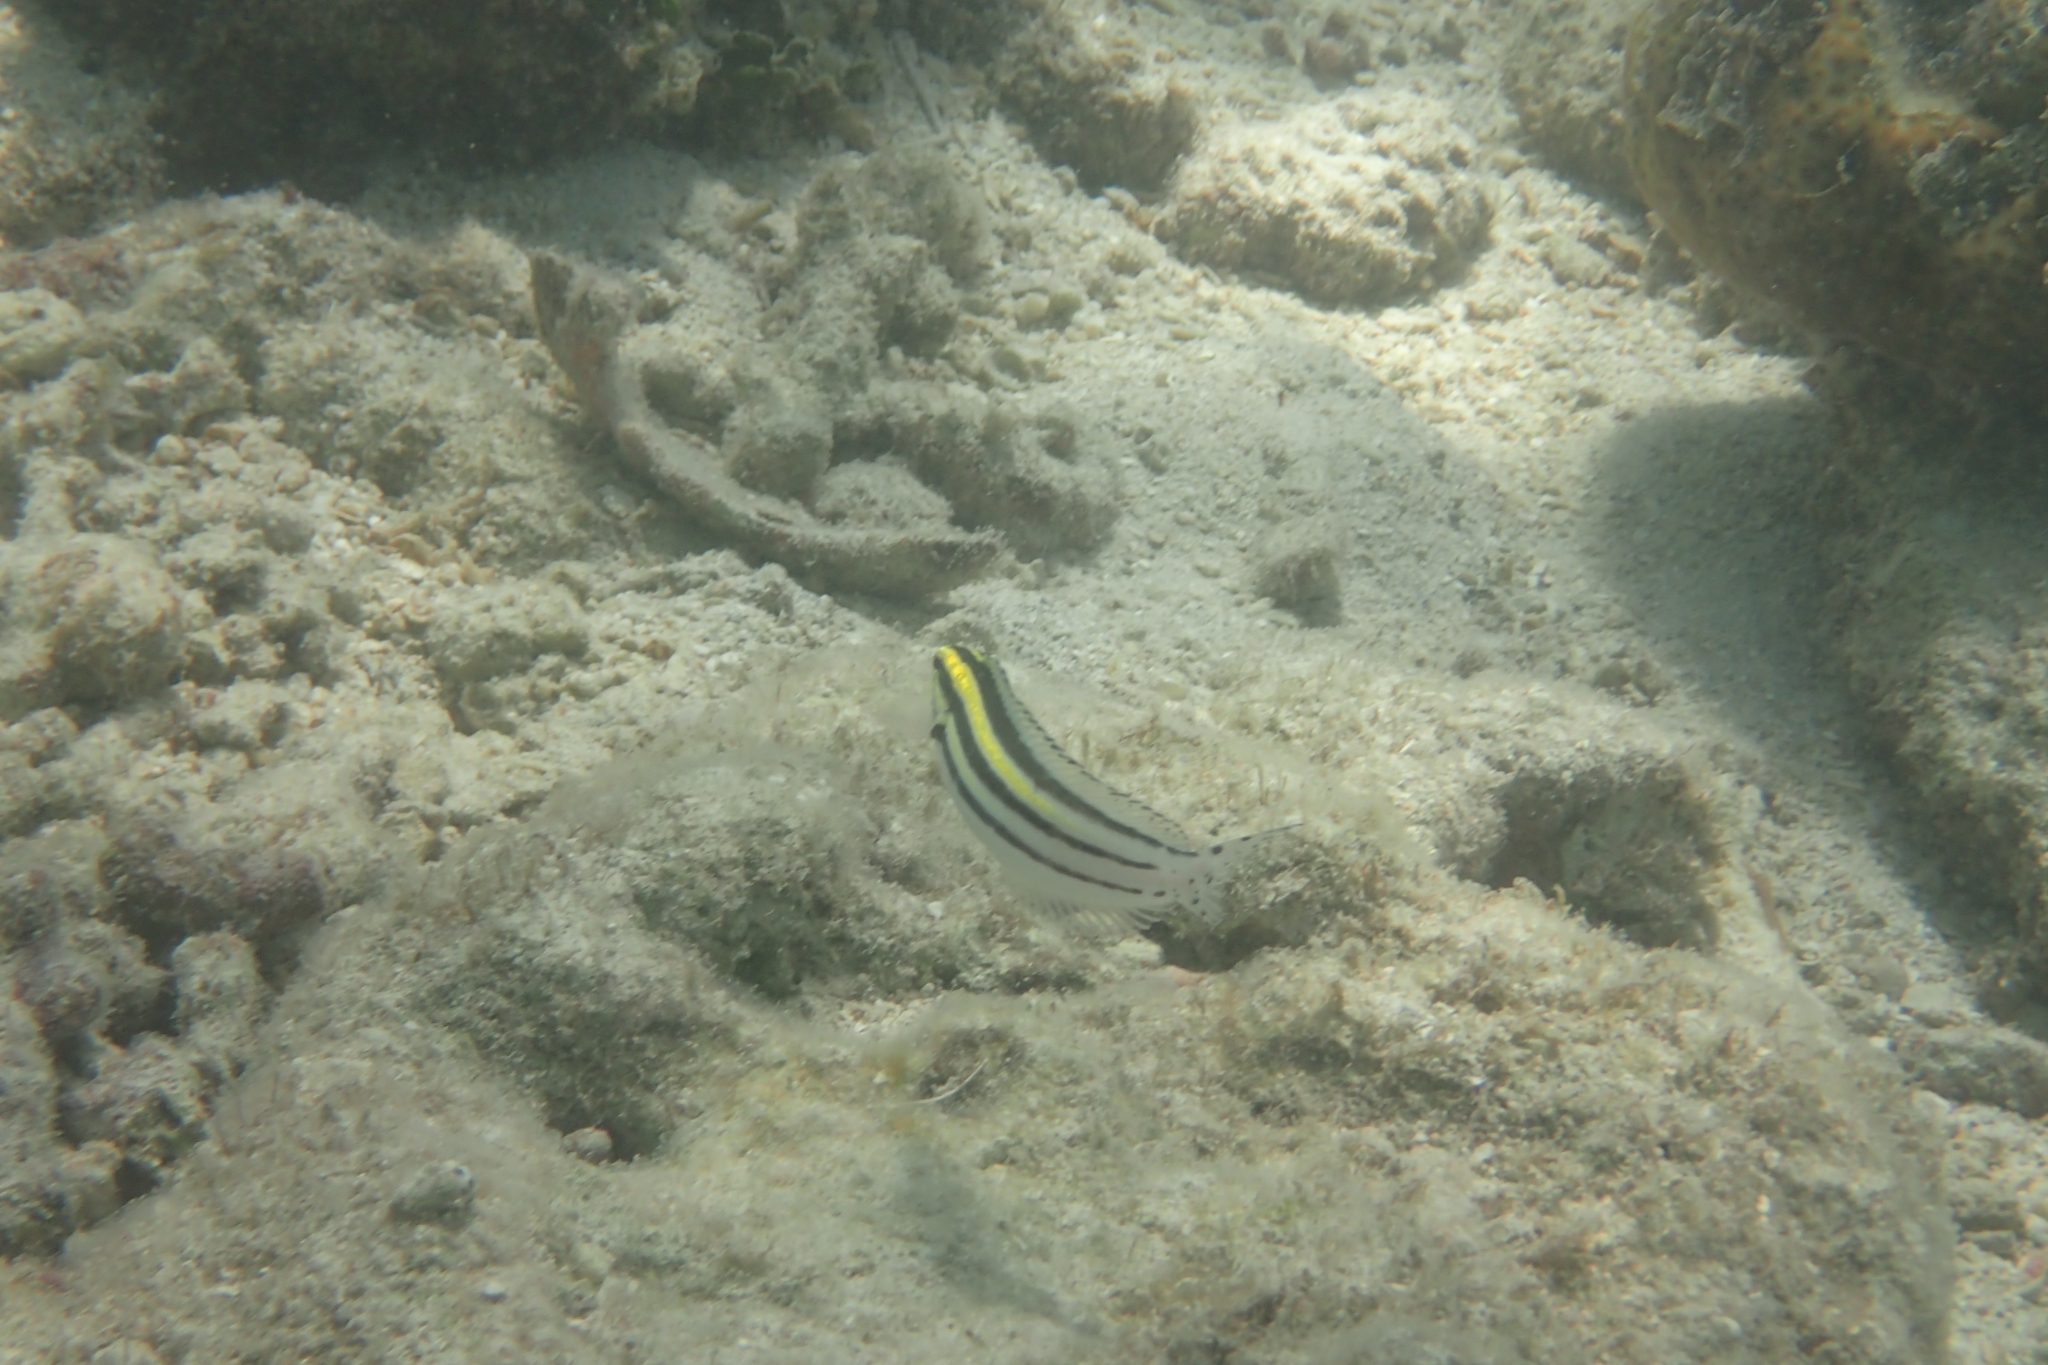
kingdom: Animalia
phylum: Chordata
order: Perciformes
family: Blenniidae
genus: Meiacanthus
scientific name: Meiacanthus grammistes
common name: Grammistes blenny
